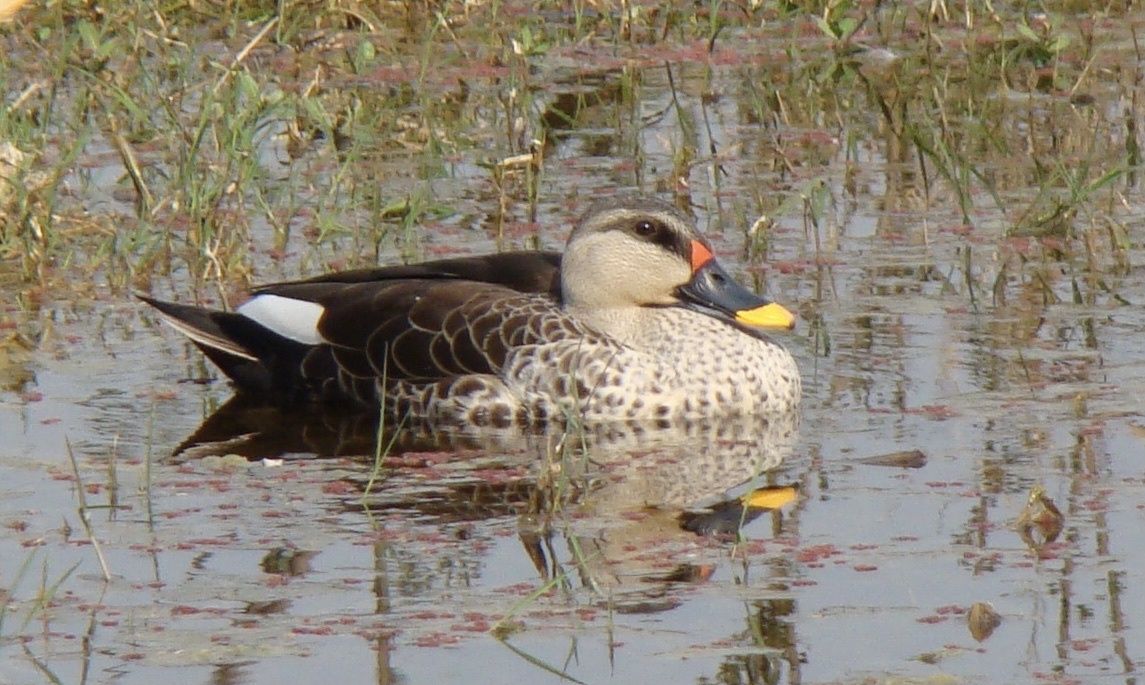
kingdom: Animalia
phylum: Chordata
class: Aves
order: Anseriformes
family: Anatidae
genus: Anas
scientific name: Anas poecilorhyncha
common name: Indian spot-billed duck
